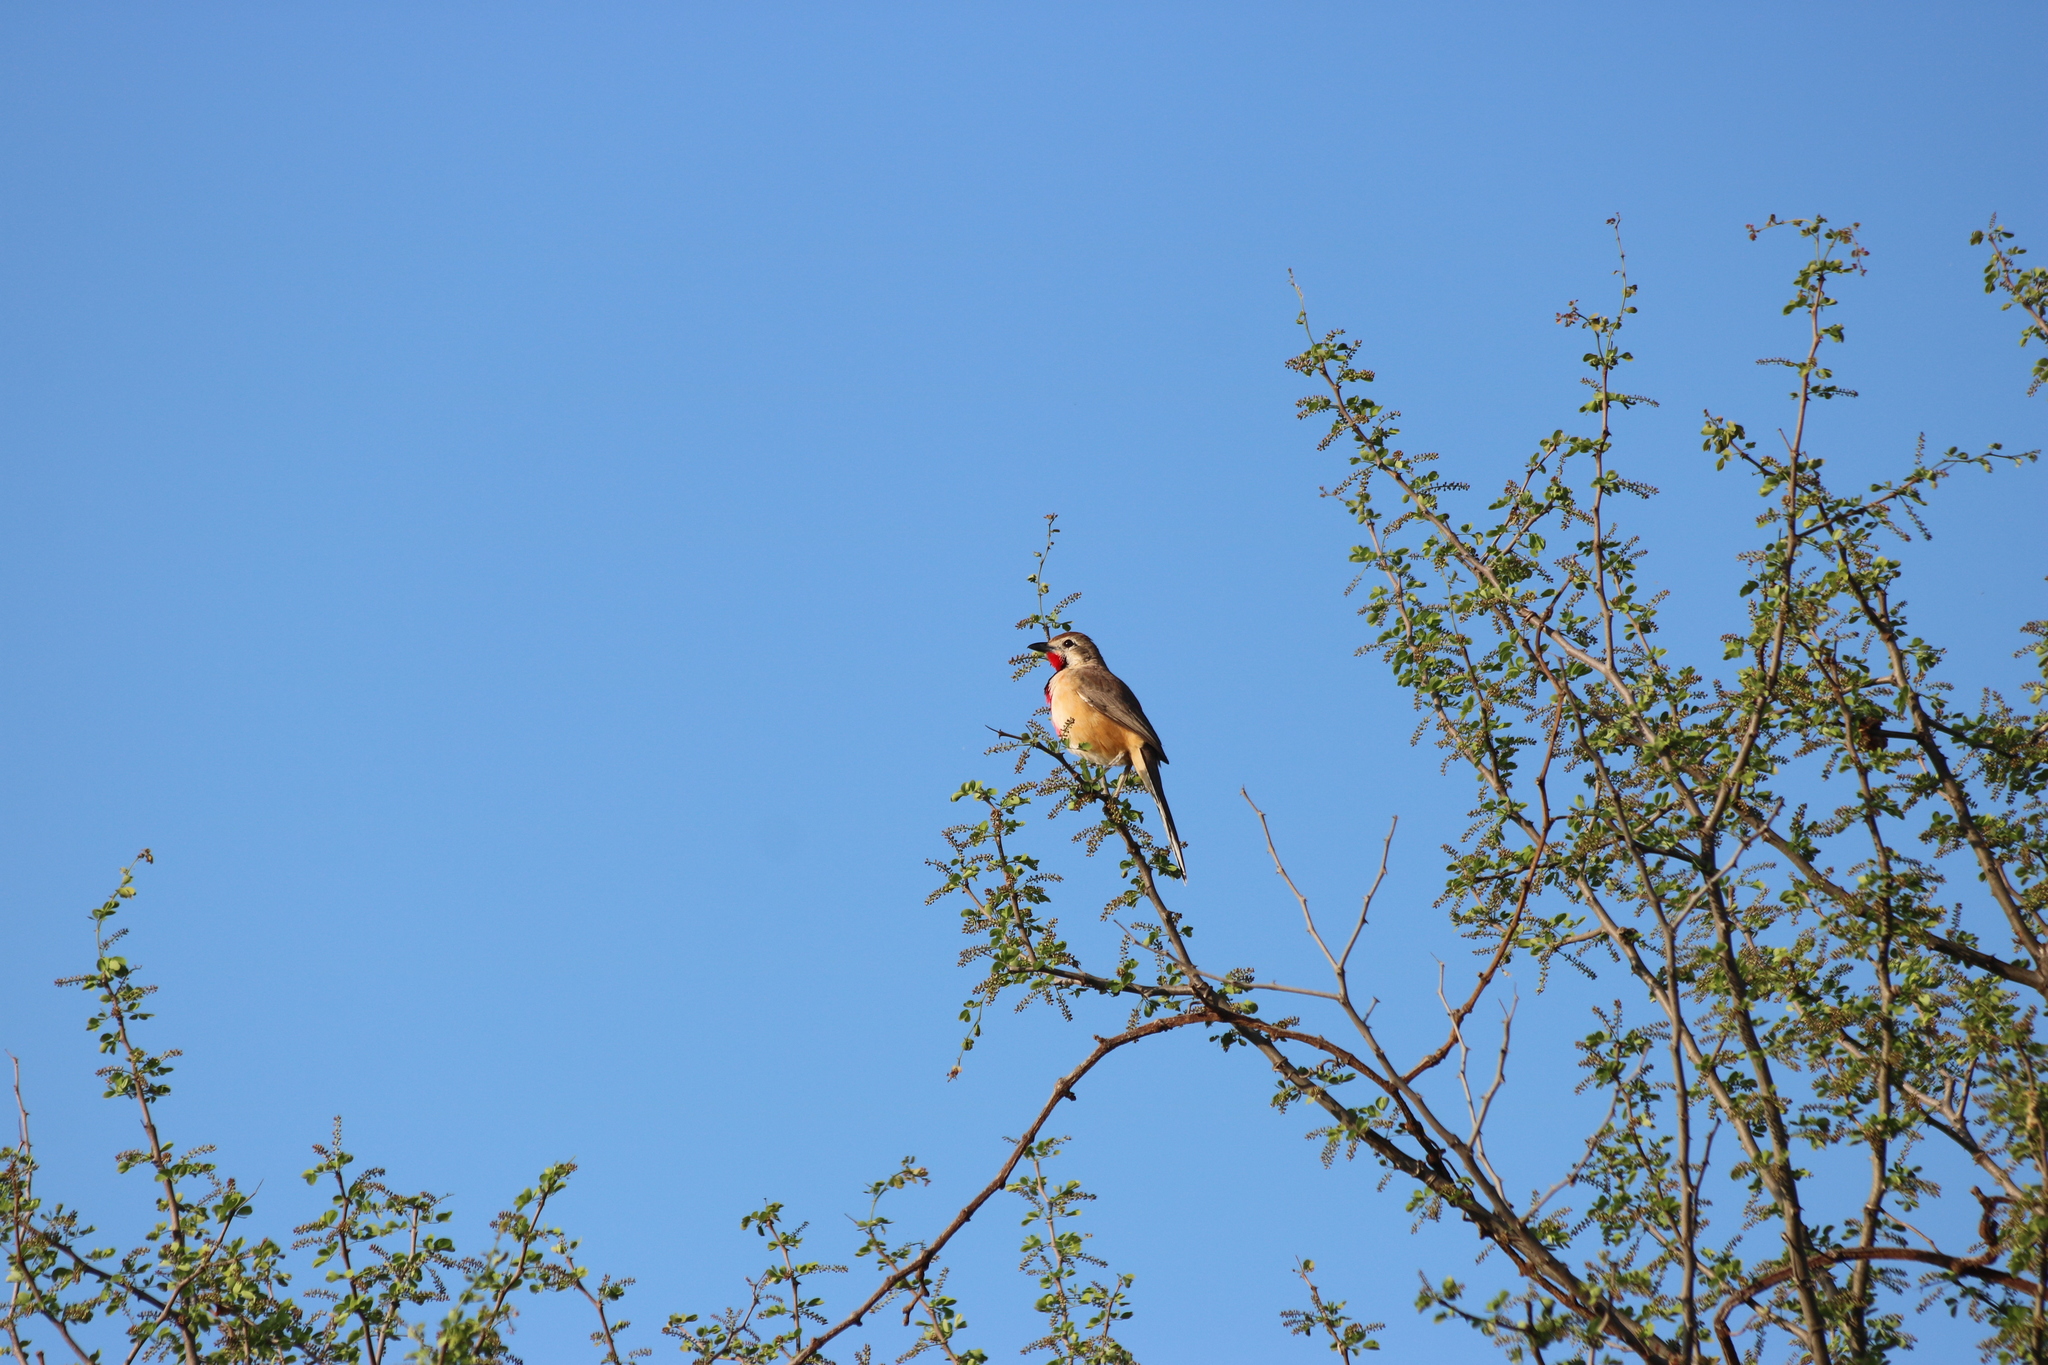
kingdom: Animalia
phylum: Chordata
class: Aves
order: Passeriformes
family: Malaconotidae
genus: Telophorus
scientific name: Telophorus cruentus
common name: Rosy-patched bushshrike
